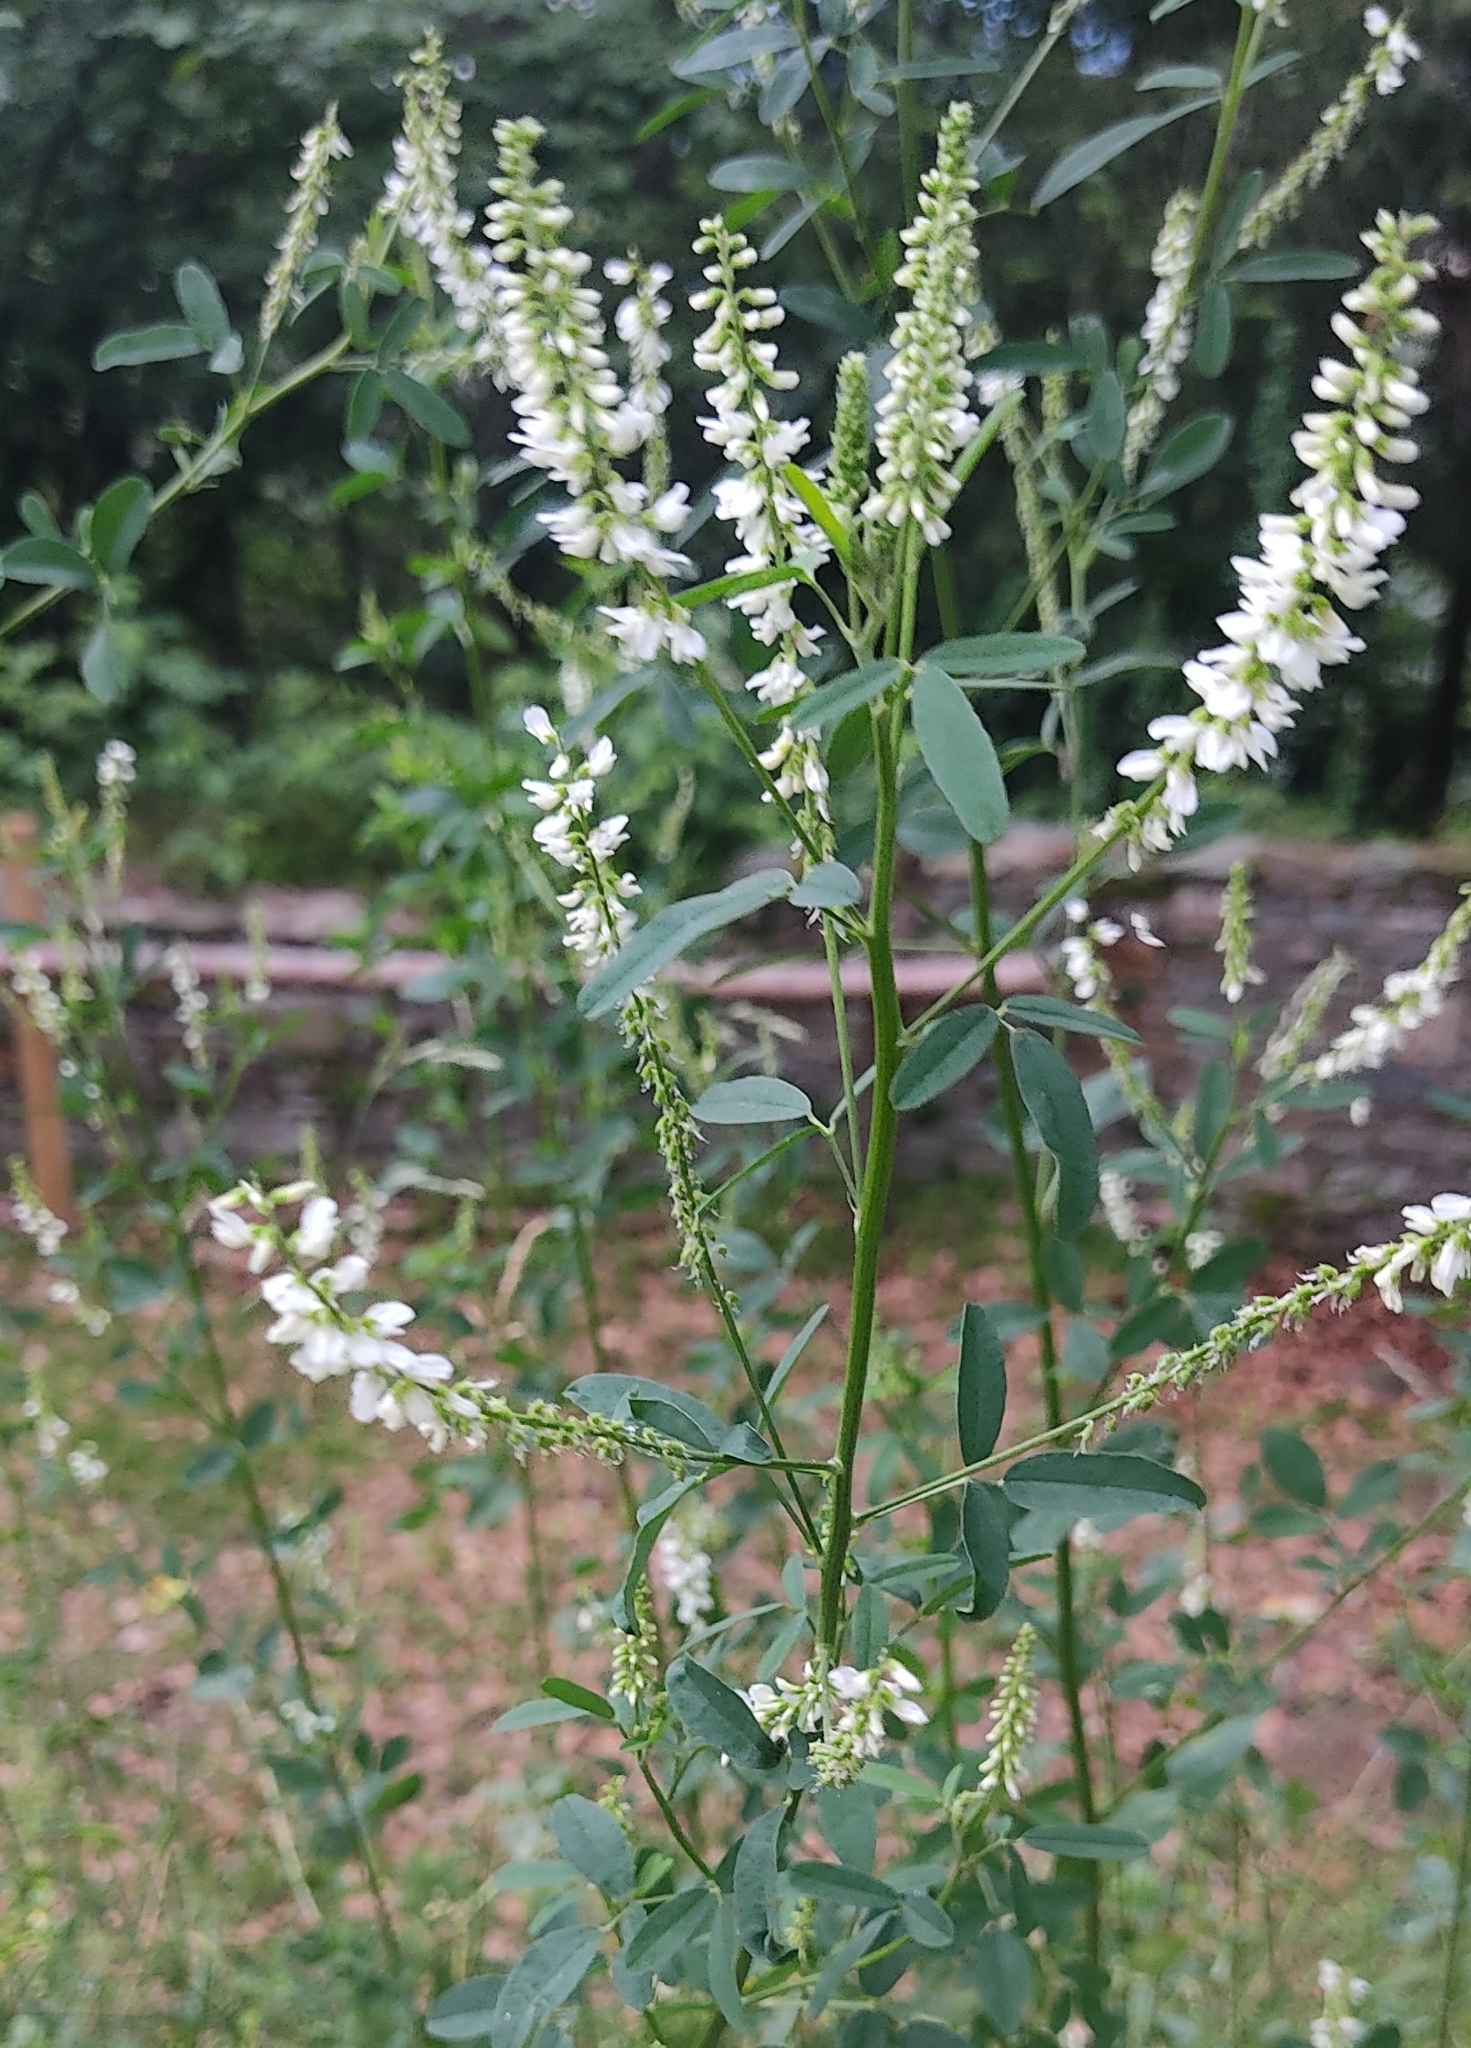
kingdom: Plantae
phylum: Tracheophyta
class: Magnoliopsida
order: Fabales
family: Fabaceae
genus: Melilotus
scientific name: Melilotus albus
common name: White melilot
